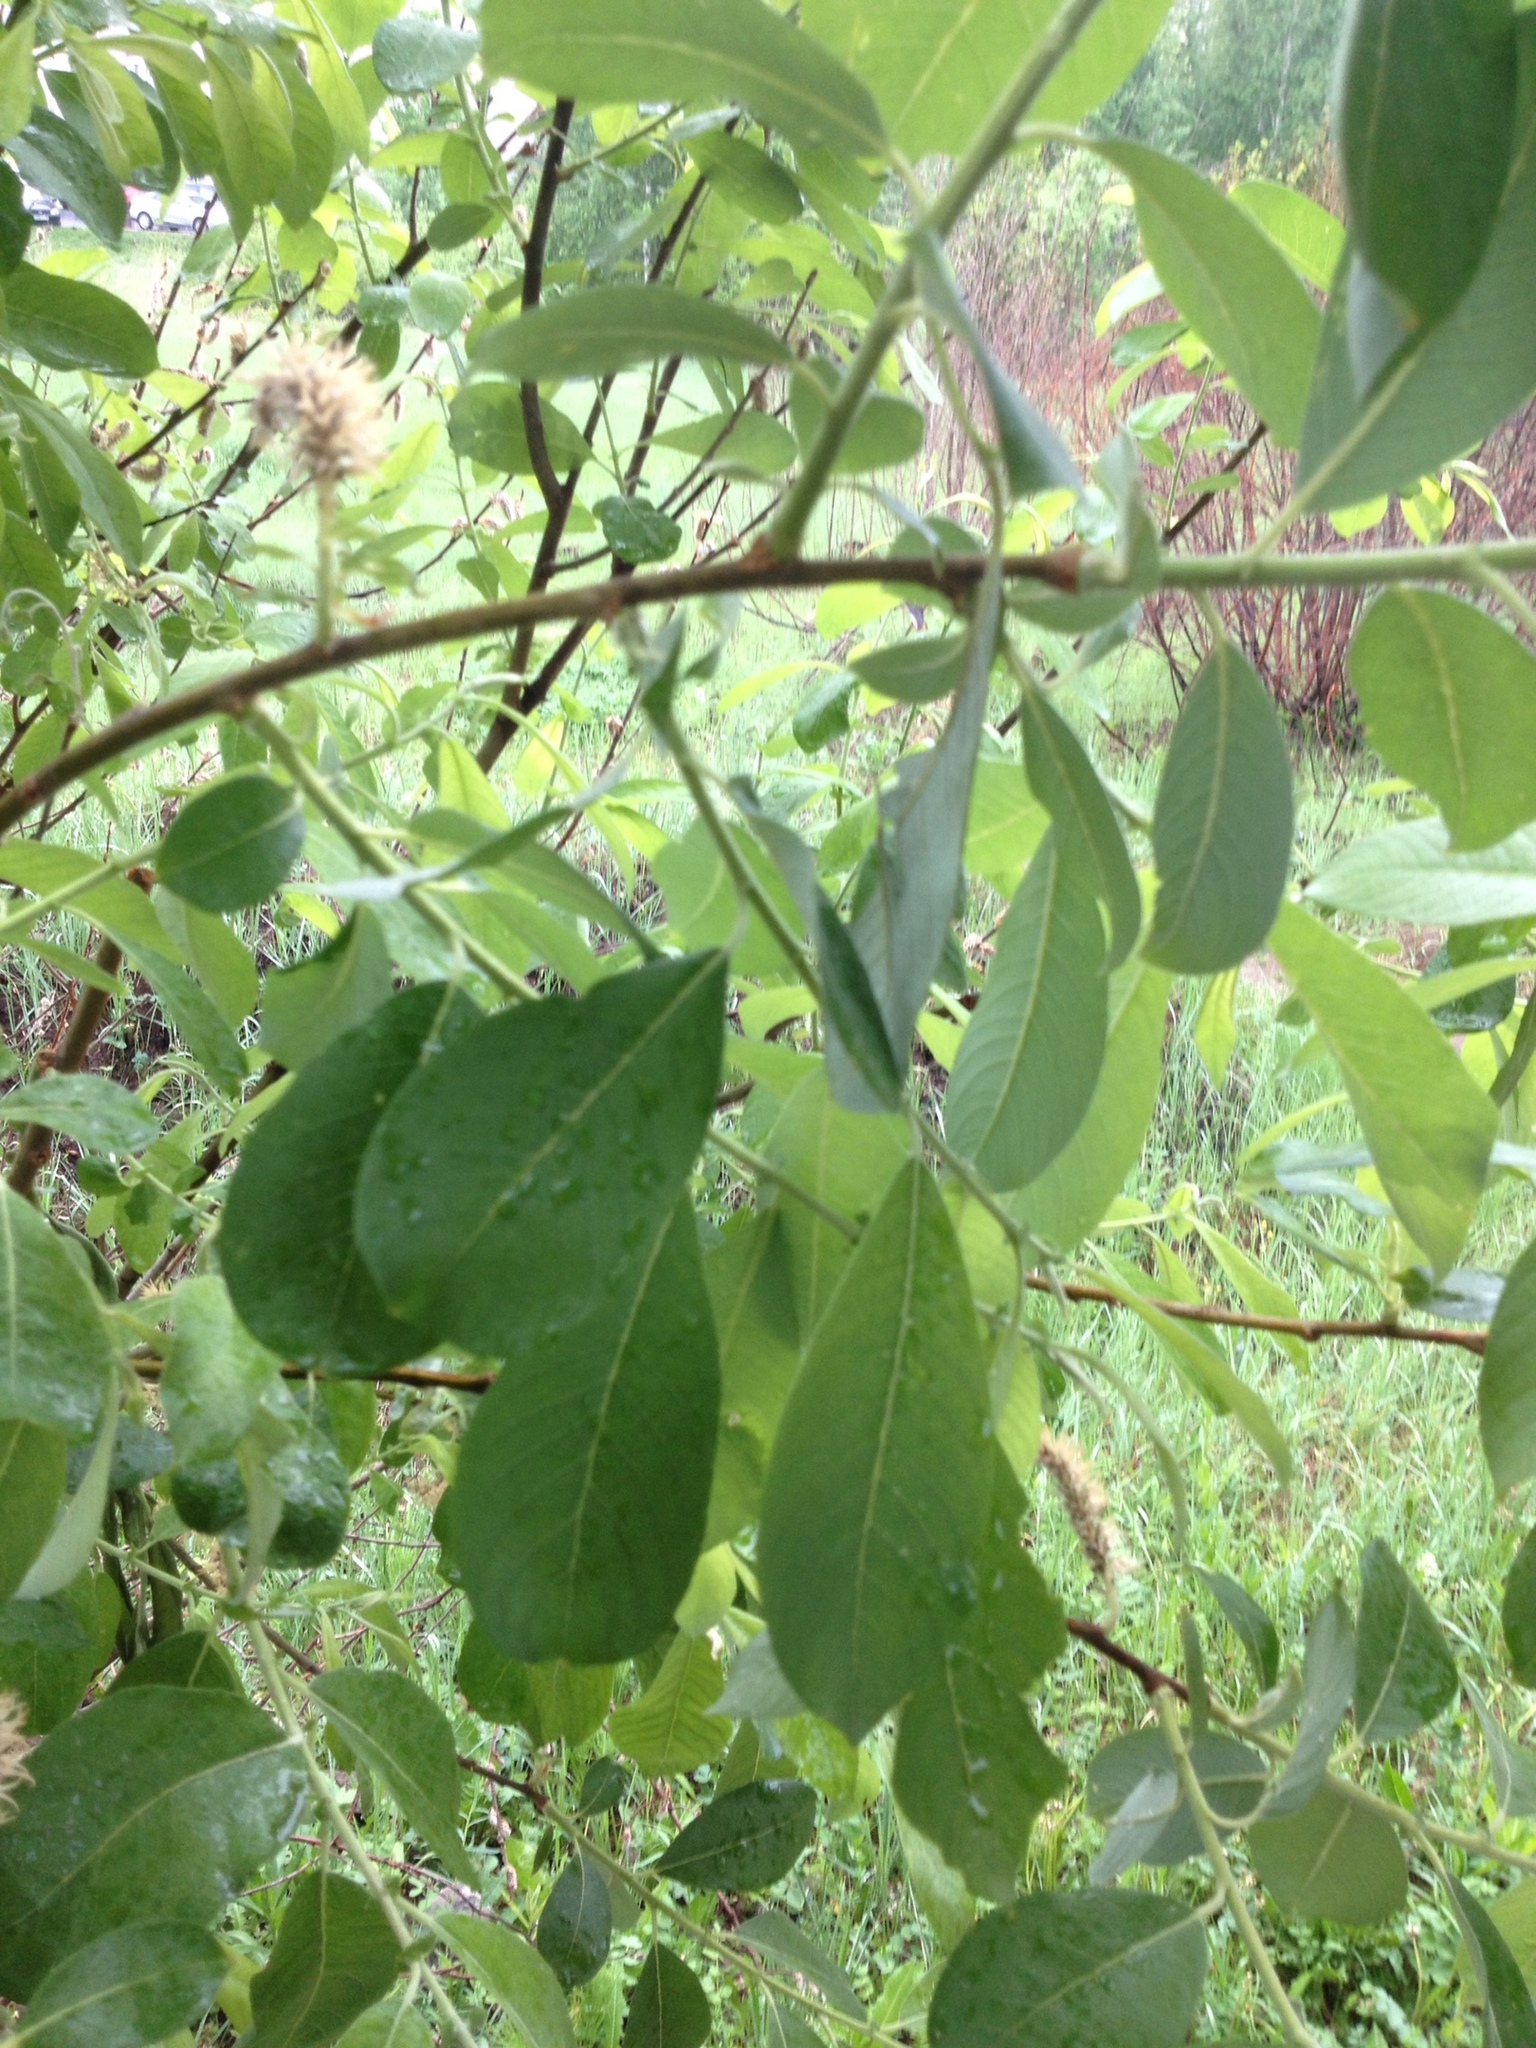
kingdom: Plantae
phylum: Tracheophyta
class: Magnoliopsida
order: Malpighiales
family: Salicaceae
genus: Salix
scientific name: Salix caprea
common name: Goat willow
